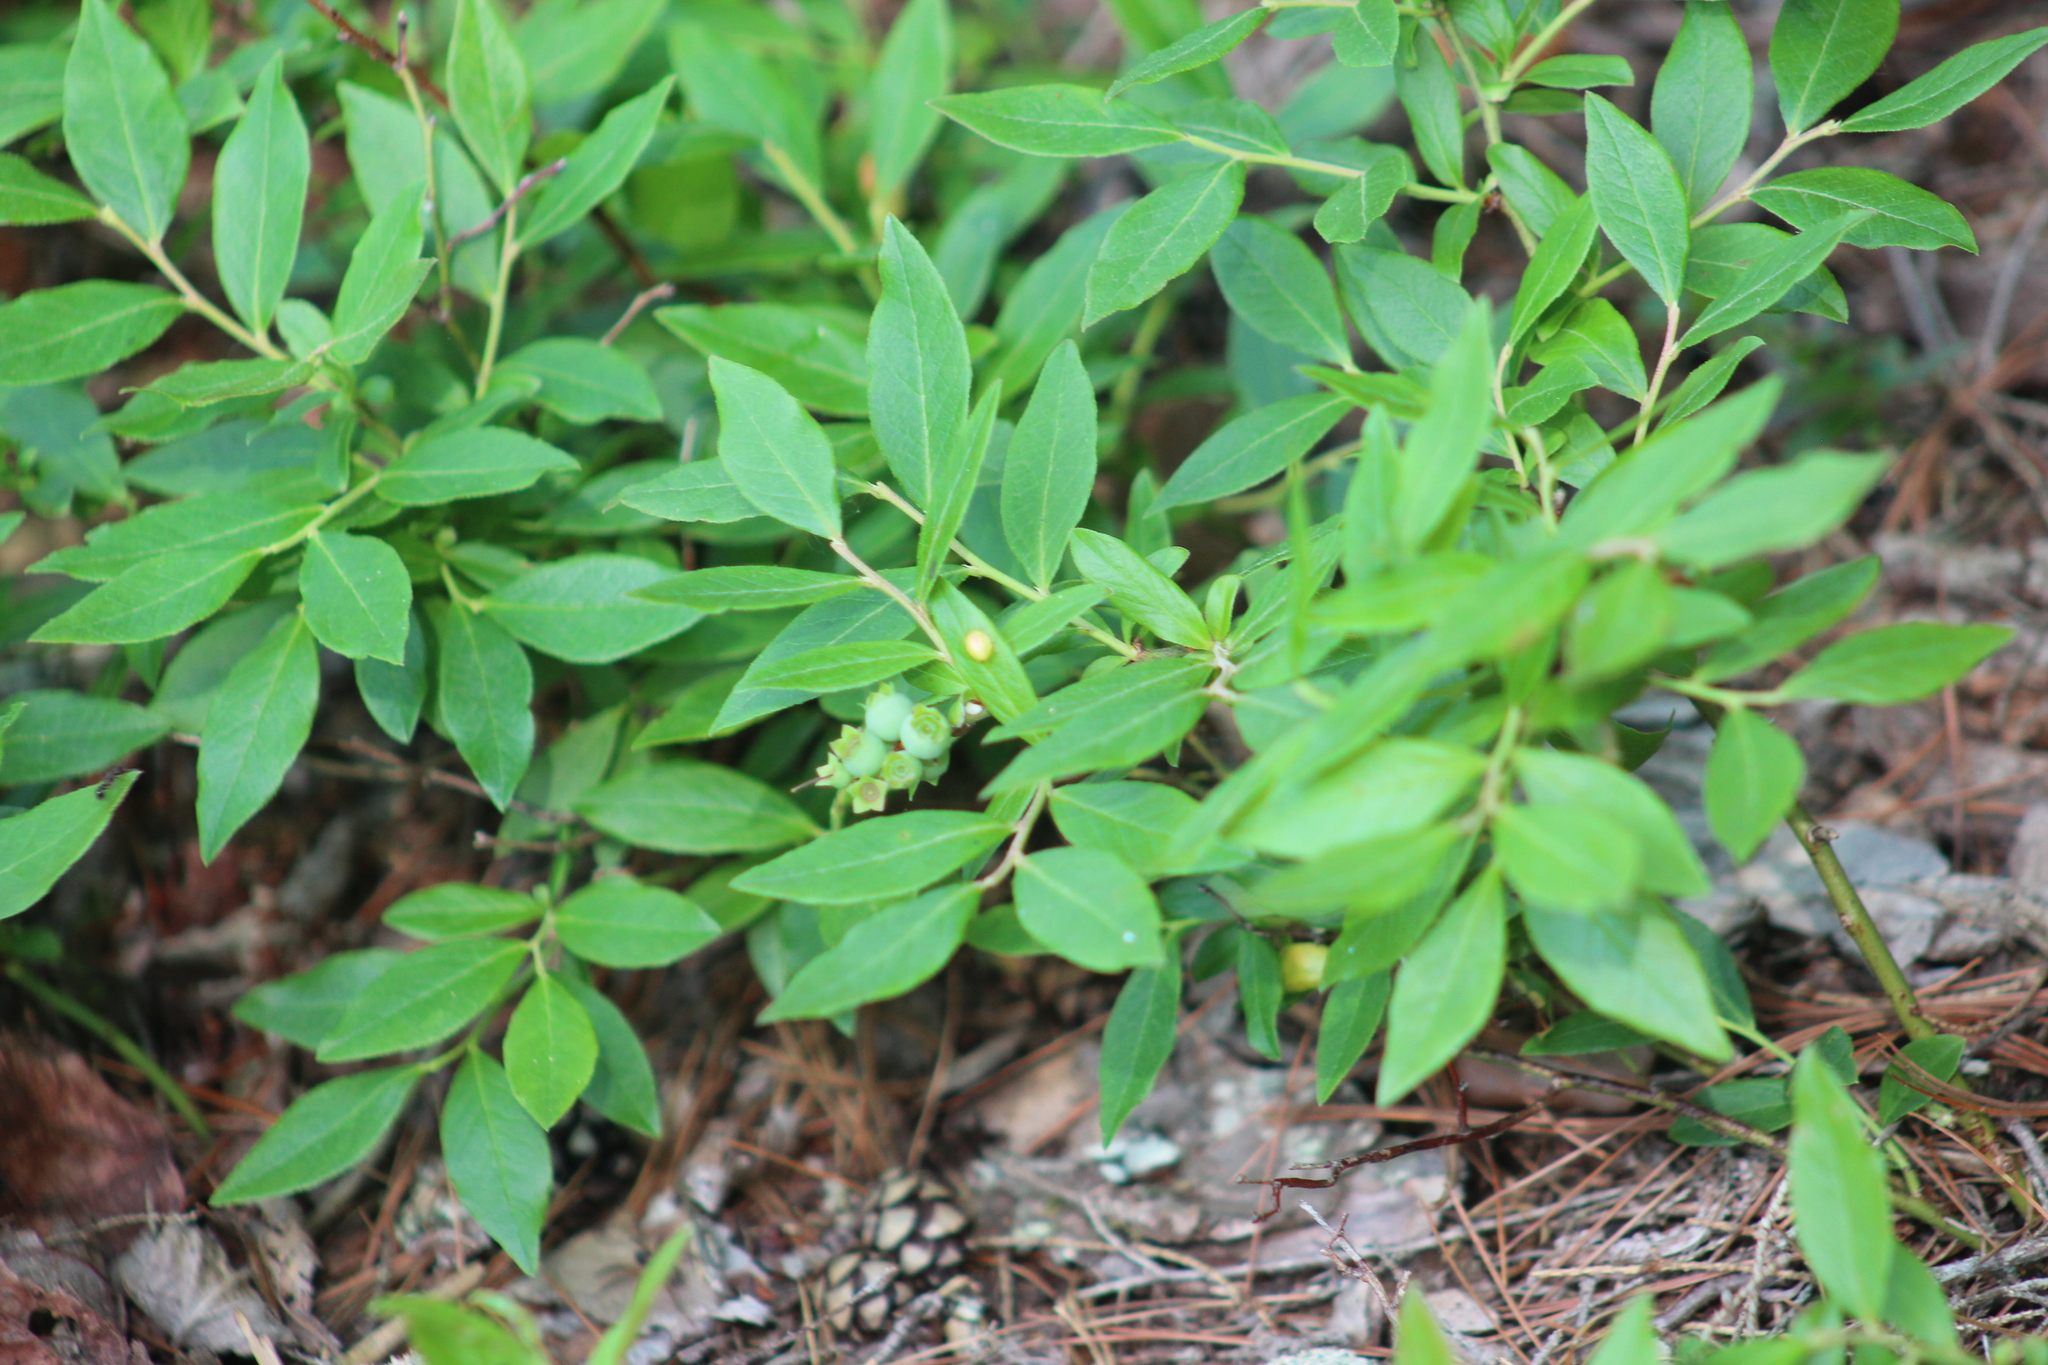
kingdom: Plantae
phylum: Tracheophyta
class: Magnoliopsida
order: Ericales
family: Ericaceae
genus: Vaccinium
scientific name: Vaccinium angustifolium
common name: Early lowbush blueberry
